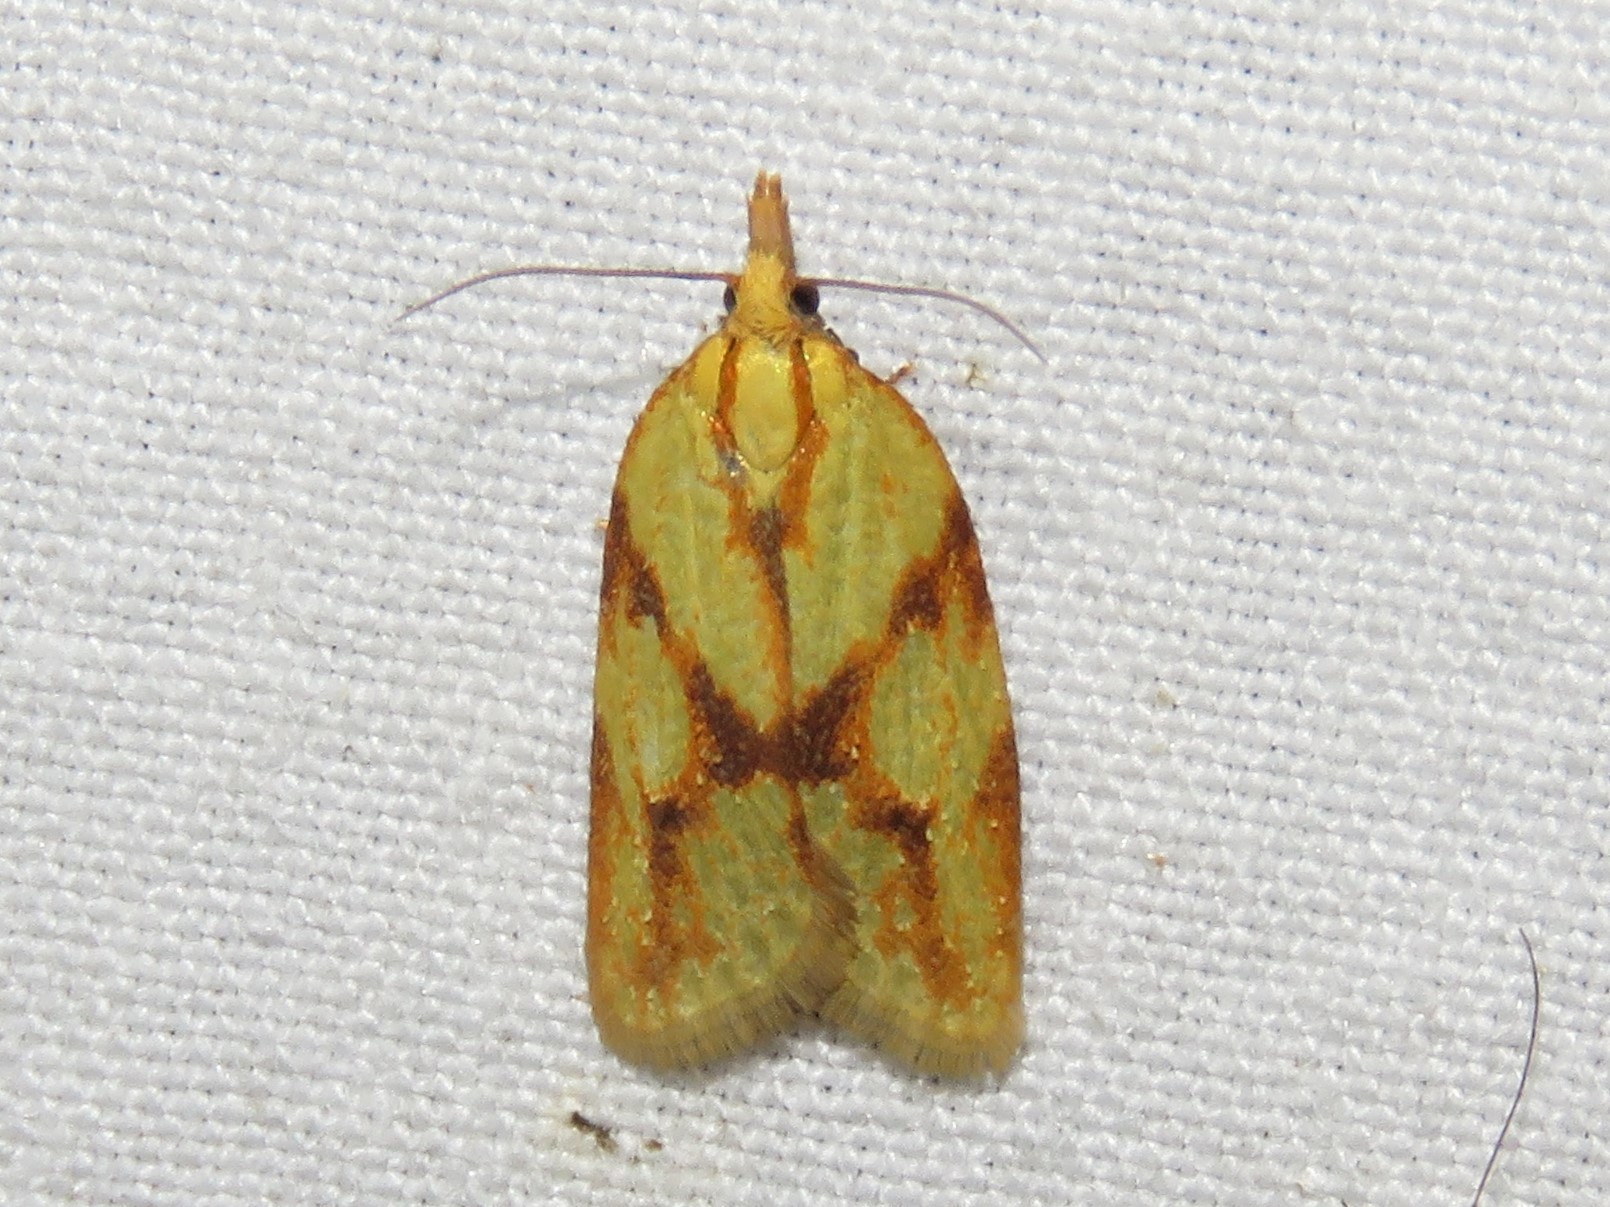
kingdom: Animalia
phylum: Arthropoda
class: Insecta
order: Lepidoptera
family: Tortricidae
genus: Sparganothis
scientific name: Sparganothis sulfureana
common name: Sparganothis fruitworm moth
